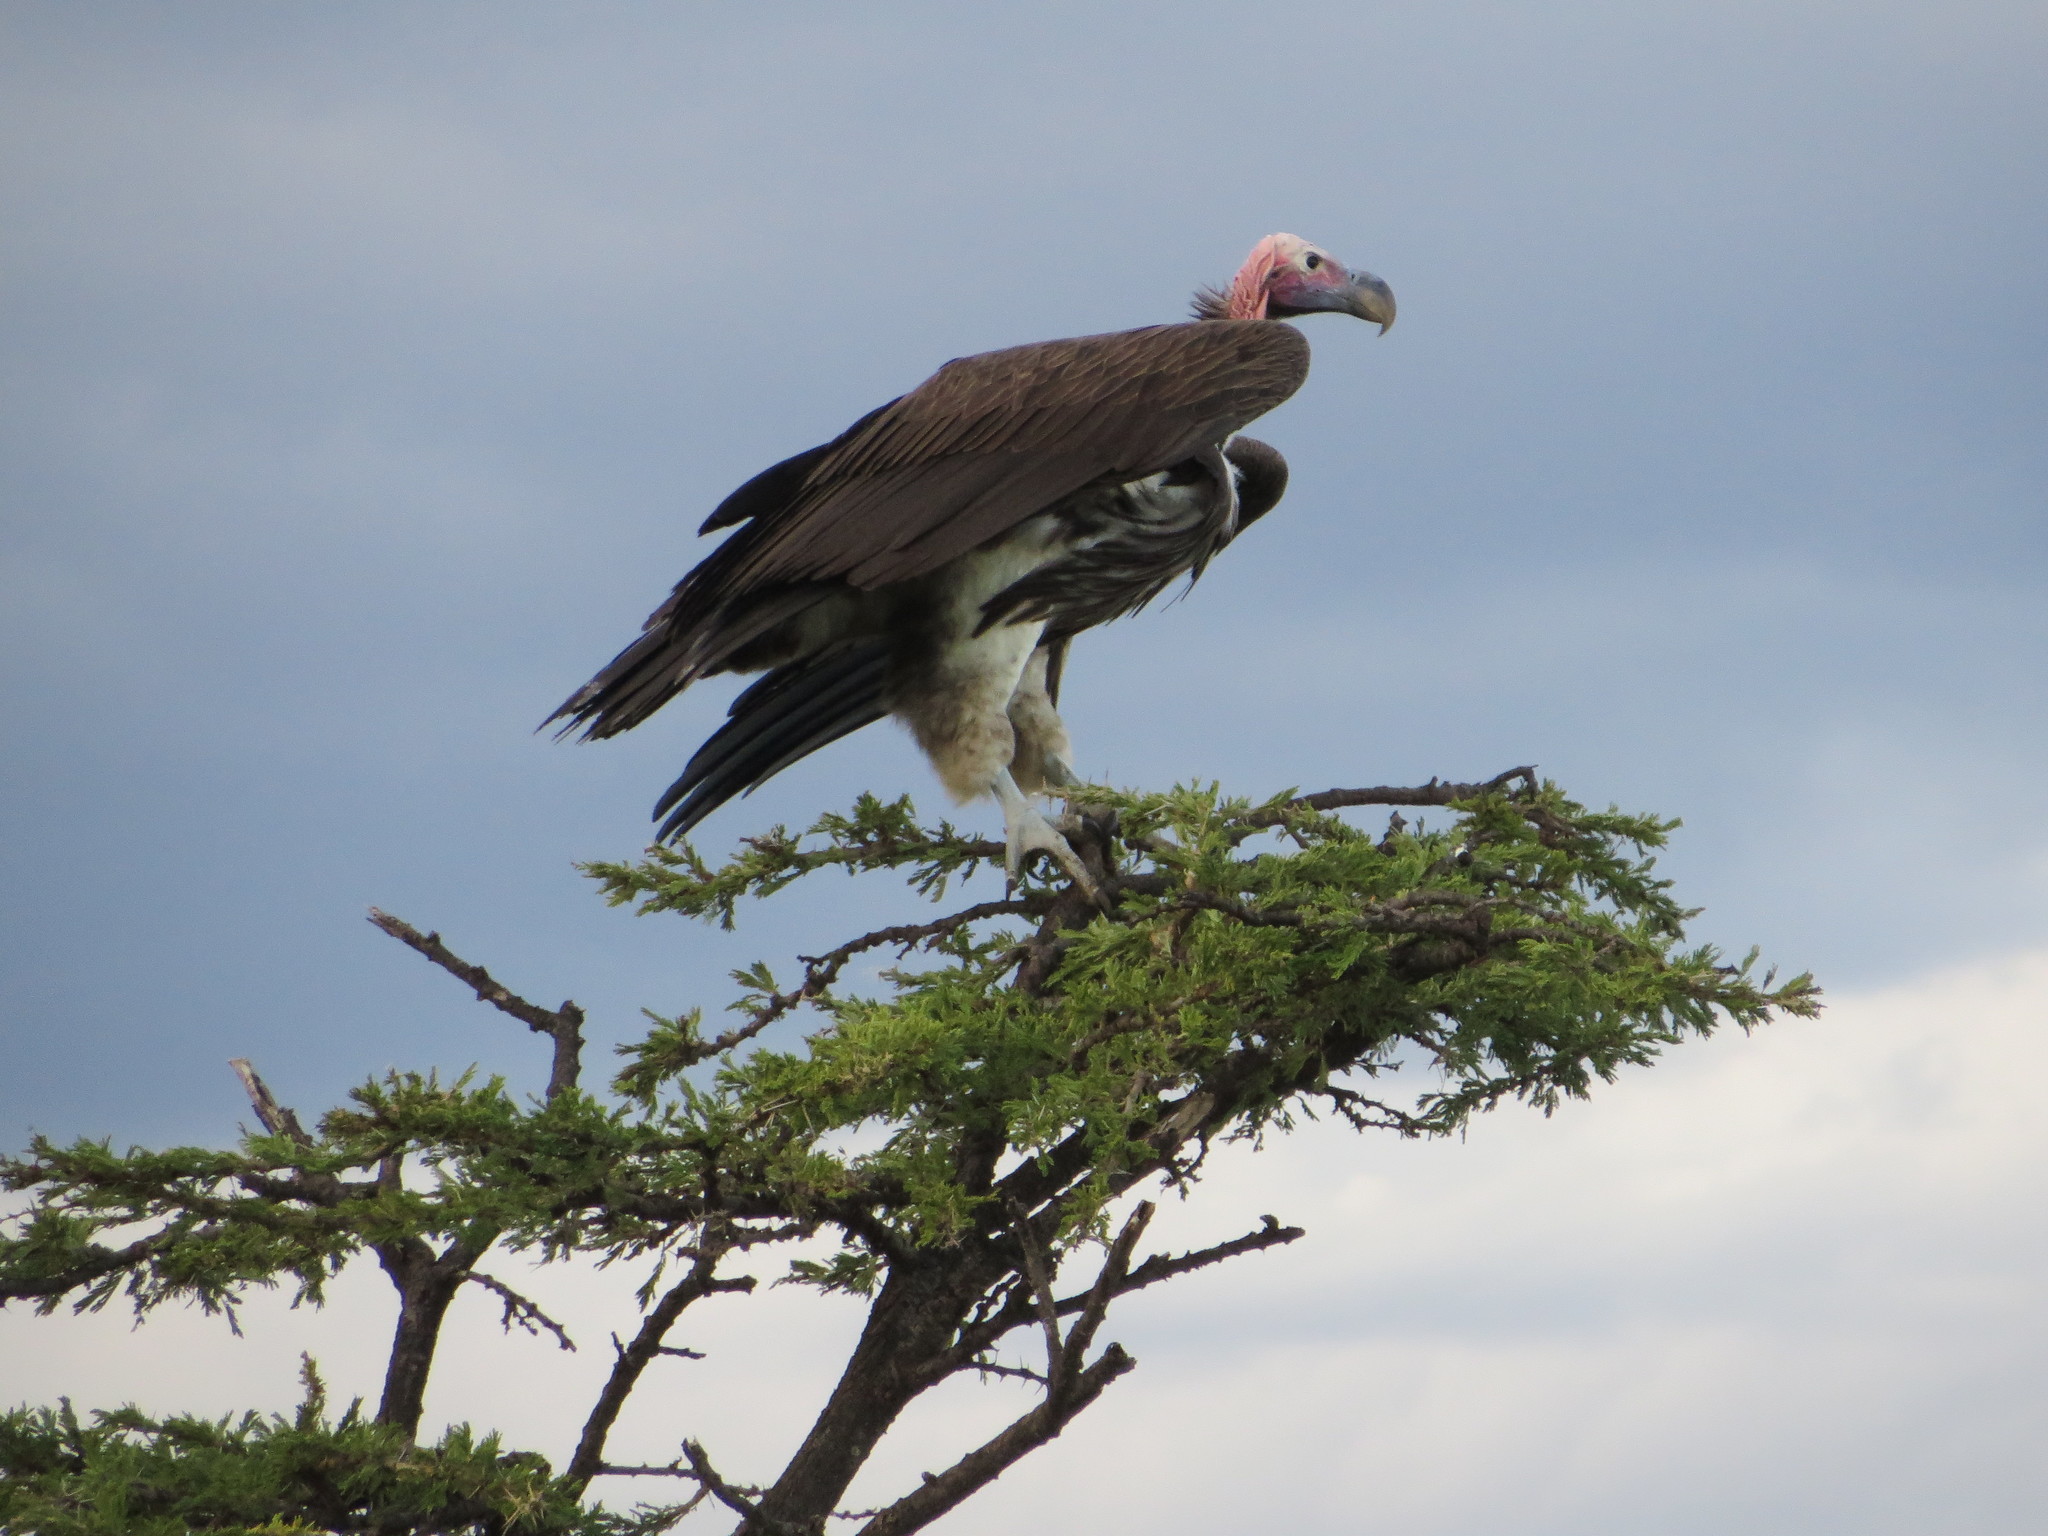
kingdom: Animalia
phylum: Chordata
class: Aves
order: Accipitriformes
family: Accipitridae
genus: Torgos
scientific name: Torgos tracheliotos
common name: Lappet-faced vulture
